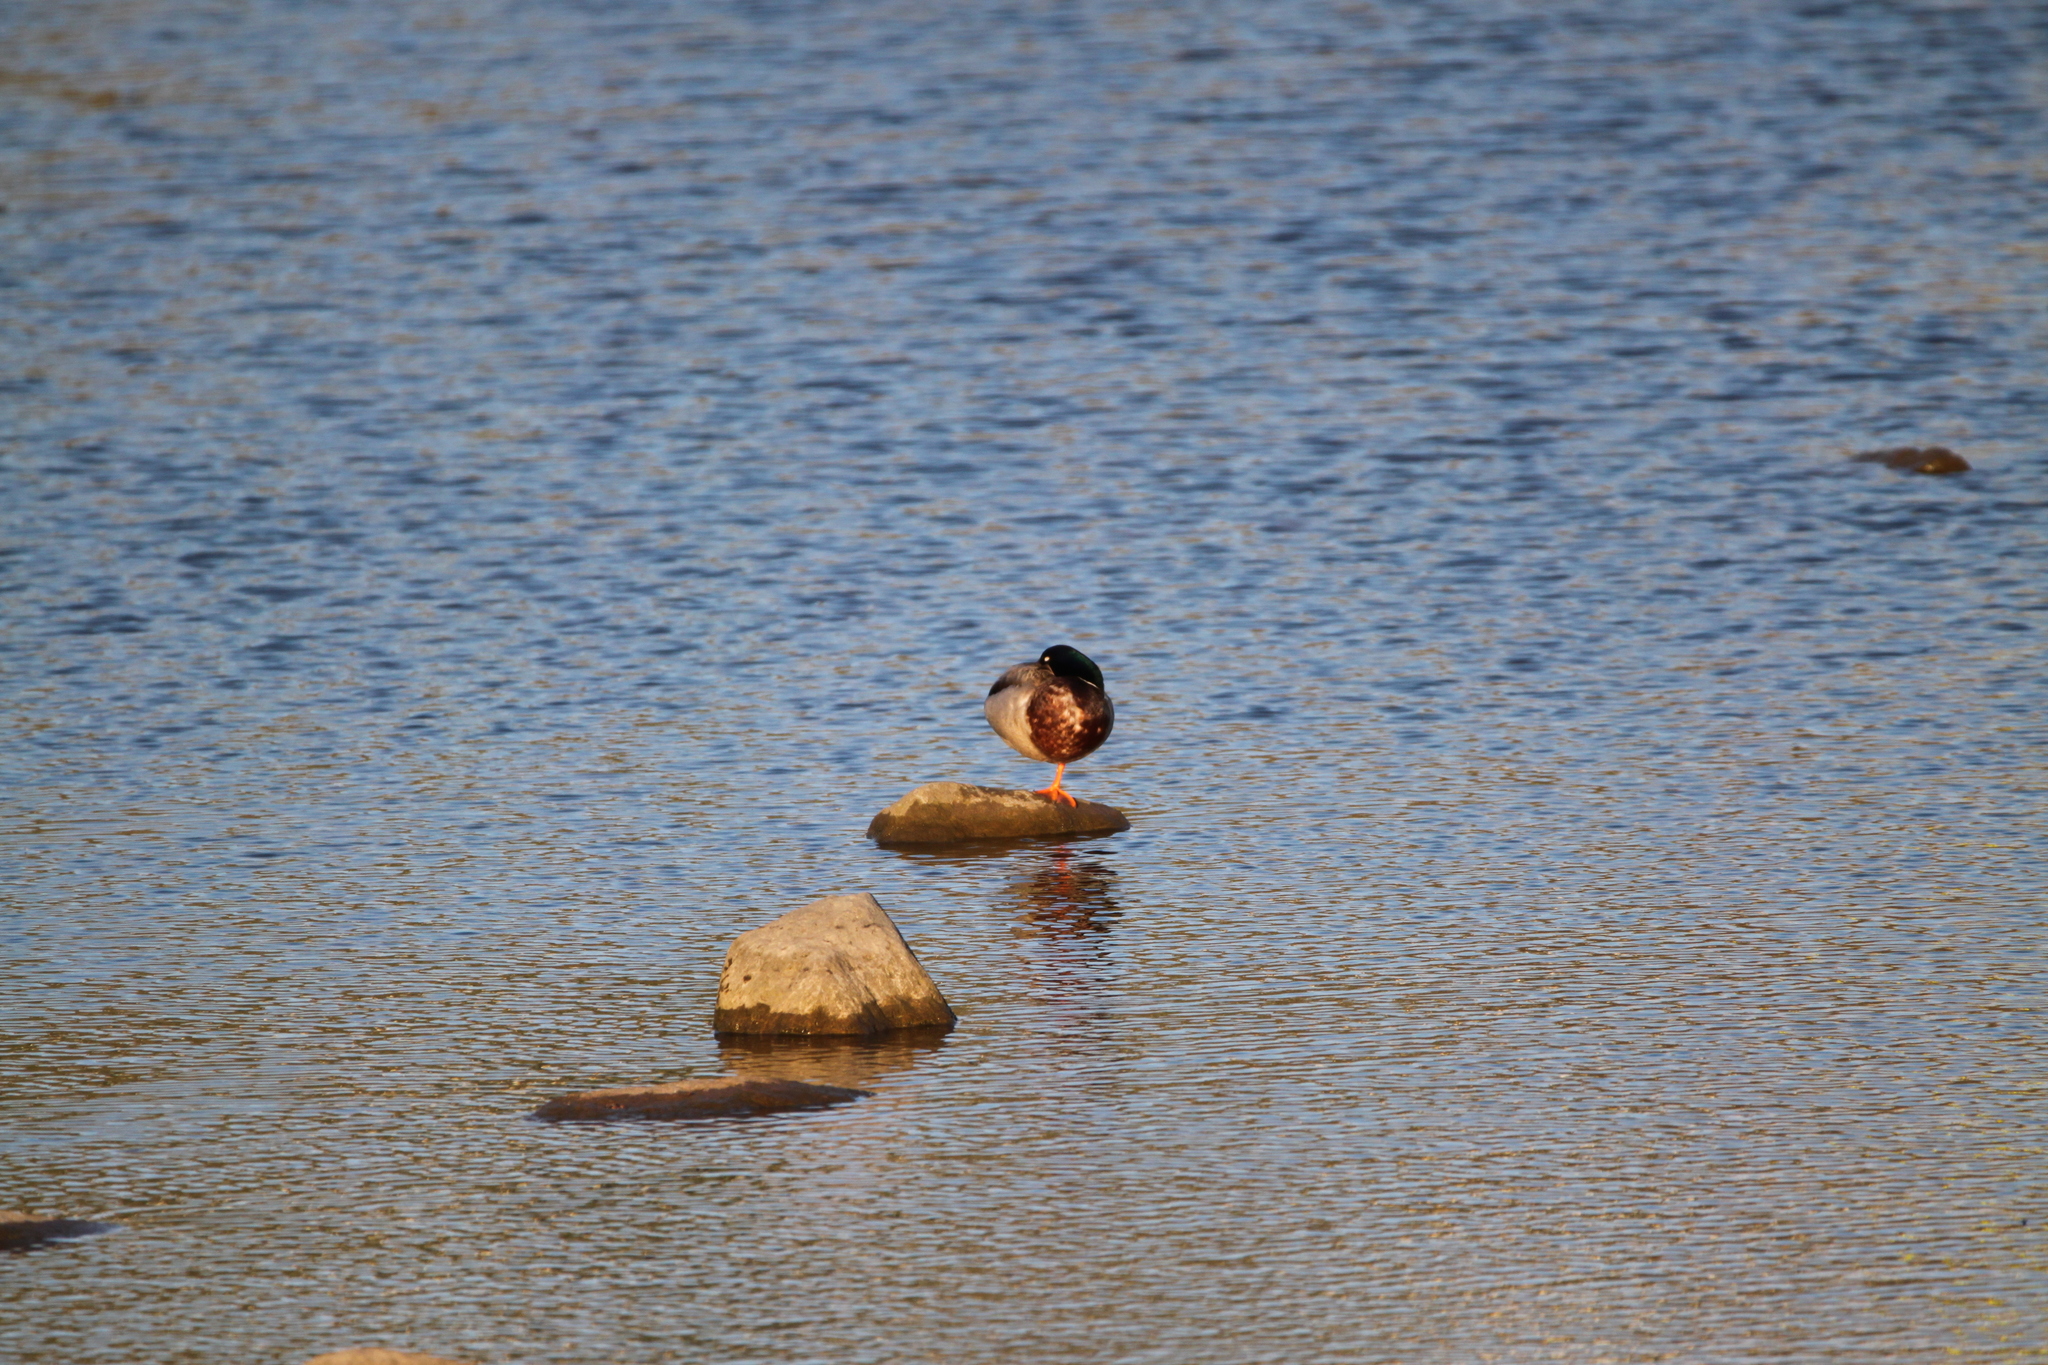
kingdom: Animalia
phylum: Chordata
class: Aves
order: Anseriformes
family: Anatidae
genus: Anas
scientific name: Anas platyrhynchos
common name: Mallard
